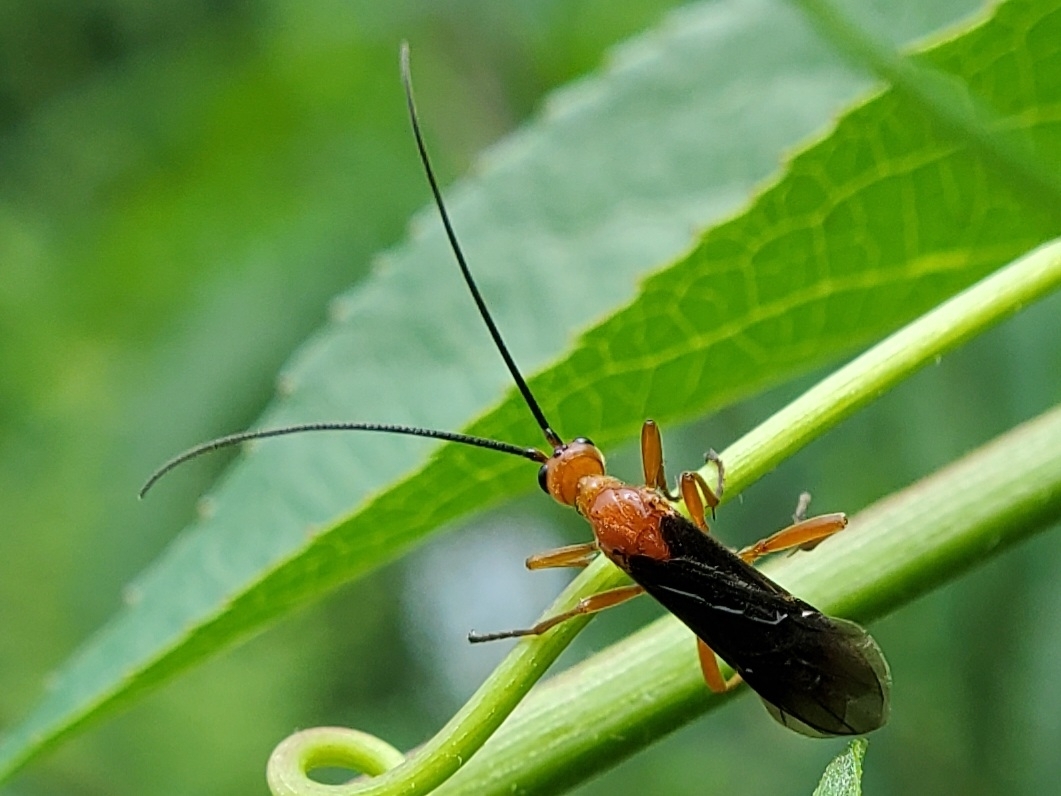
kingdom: Animalia
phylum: Arthropoda
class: Insecta
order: Hymenoptera
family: Braconidae
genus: Aleiodes
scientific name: Aleiodes politiceps
